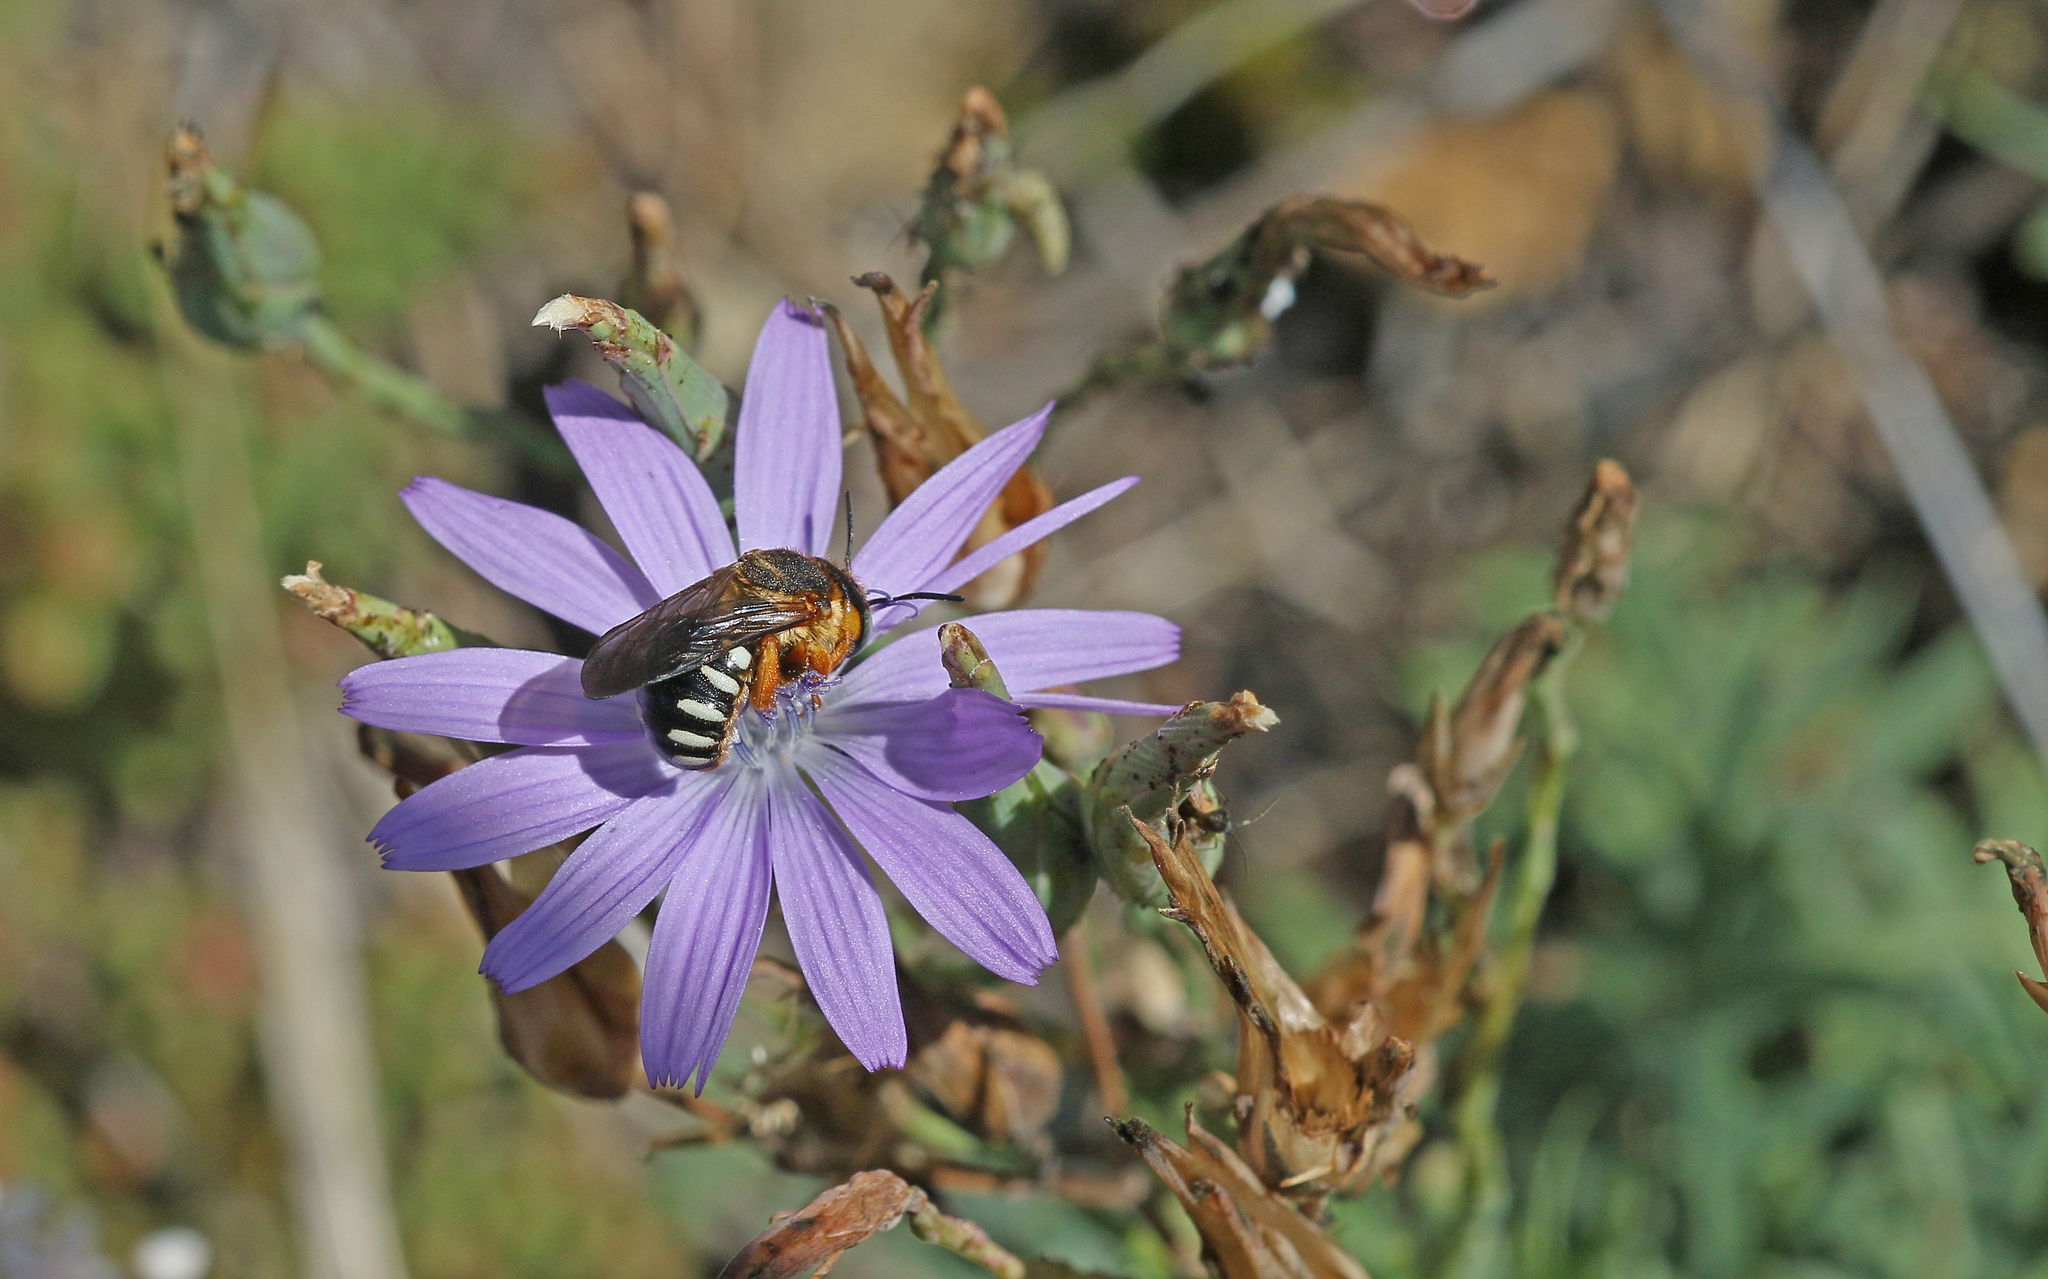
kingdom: Animalia
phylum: Arthropoda
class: Insecta
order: Hymenoptera
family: Megachilidae
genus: Icteranthidium
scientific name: Icteranthidium laterale
